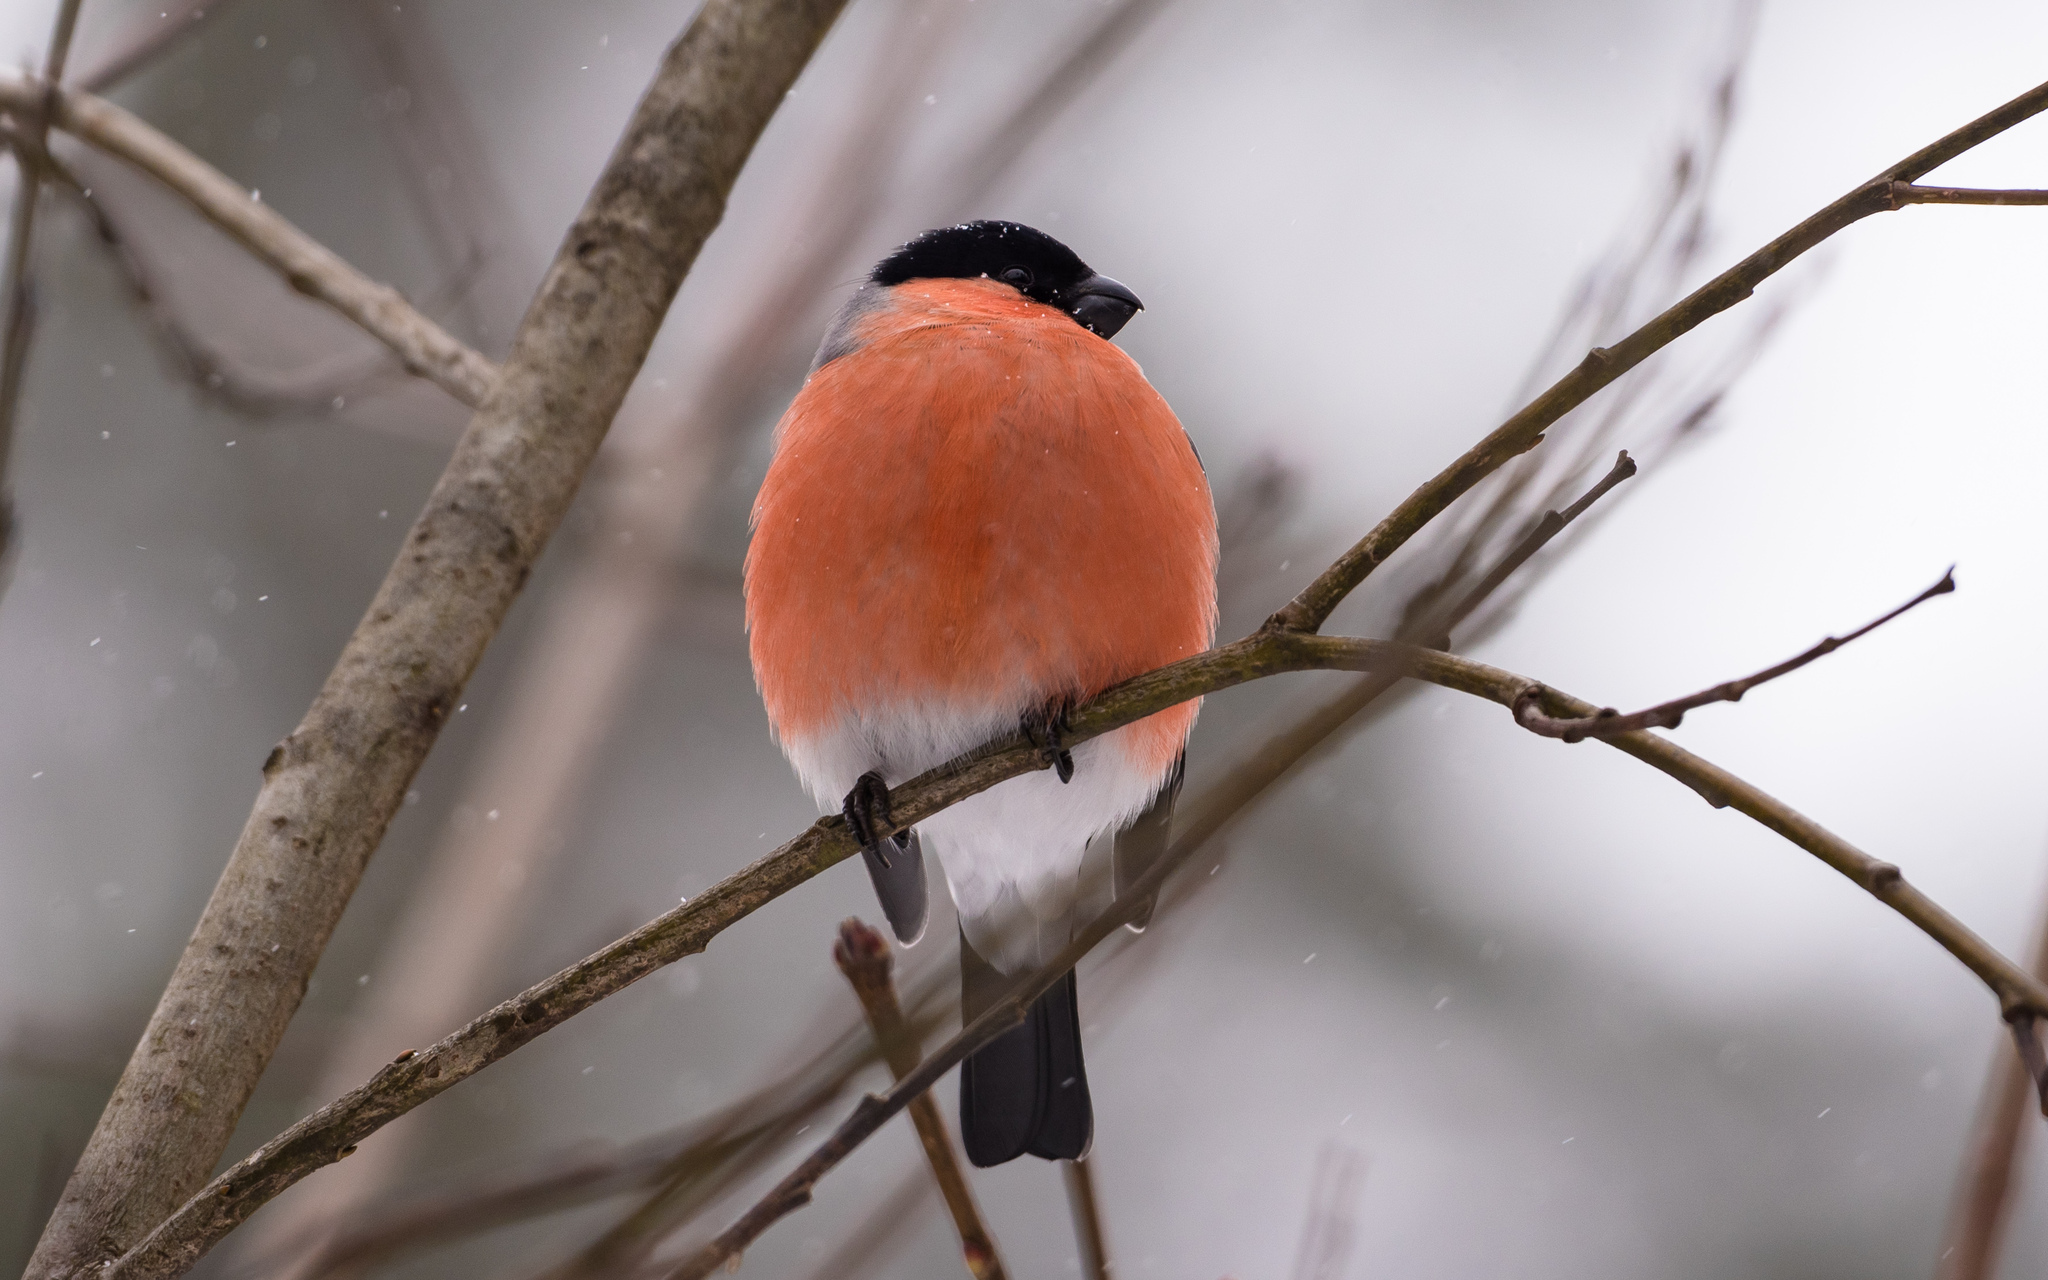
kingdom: Animalia
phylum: Chordata
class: Aves
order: Passeriformes
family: Fringillidae
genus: Pyrrhula
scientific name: Pyrrhula pyrrhula
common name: Eurasian bullfinch
